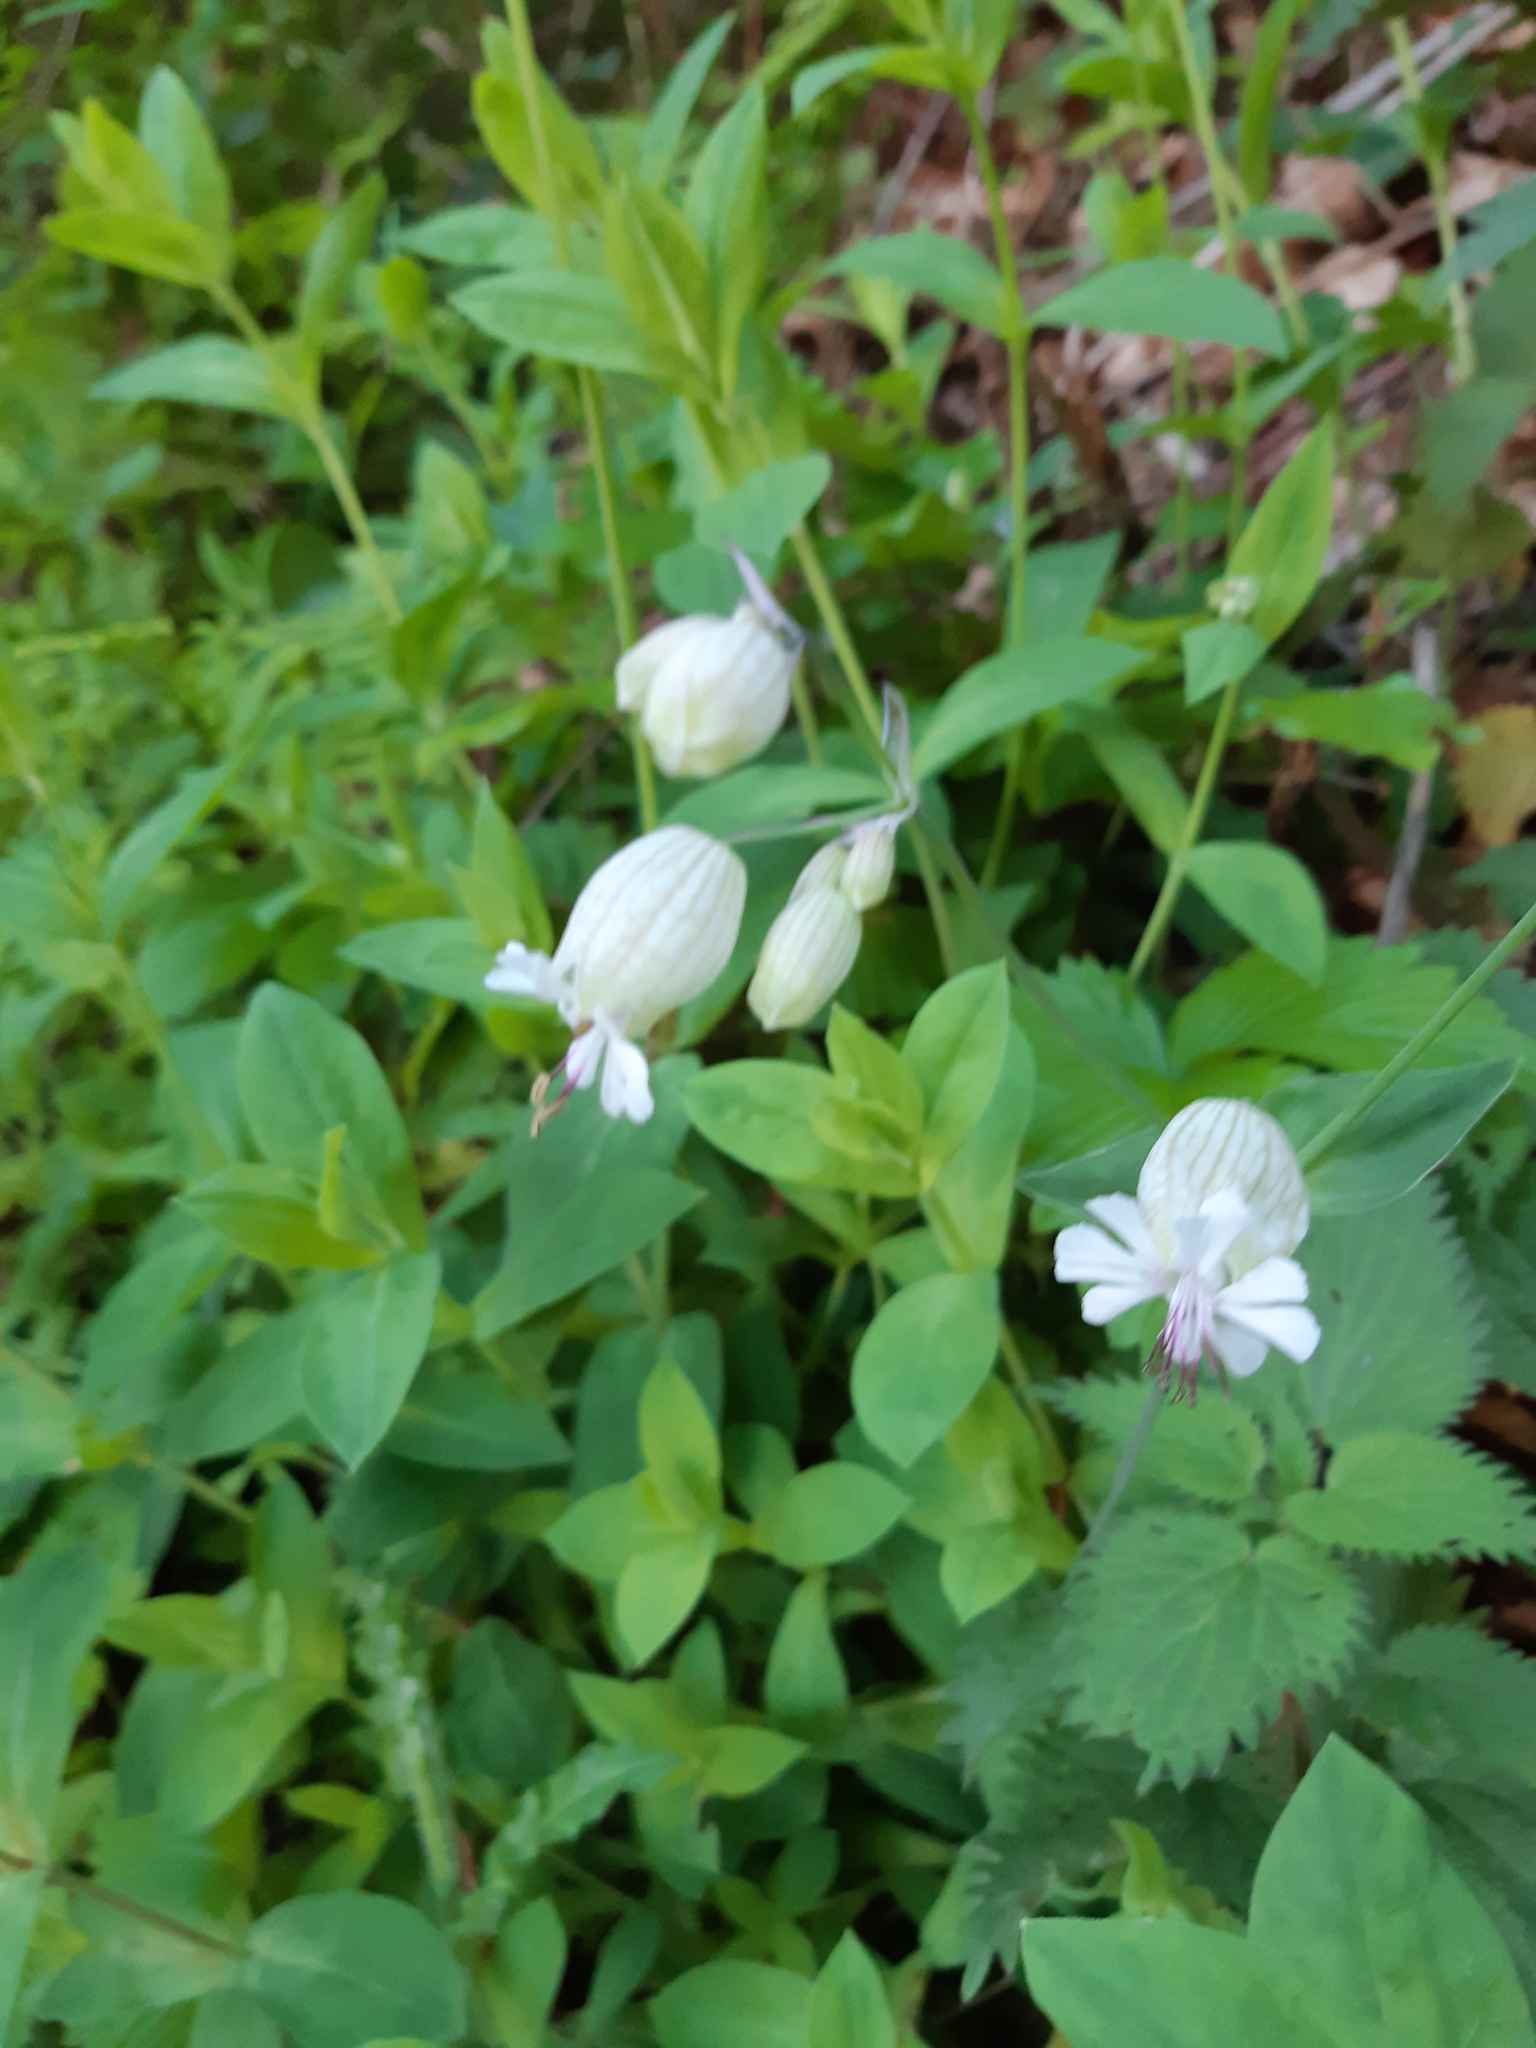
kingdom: Plantae
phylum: Tracheophyta
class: Magnoliopsida
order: Caryophyllales
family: Caryophyllaceae
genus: Silene
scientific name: Silene vulgaris
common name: Bladder campion
